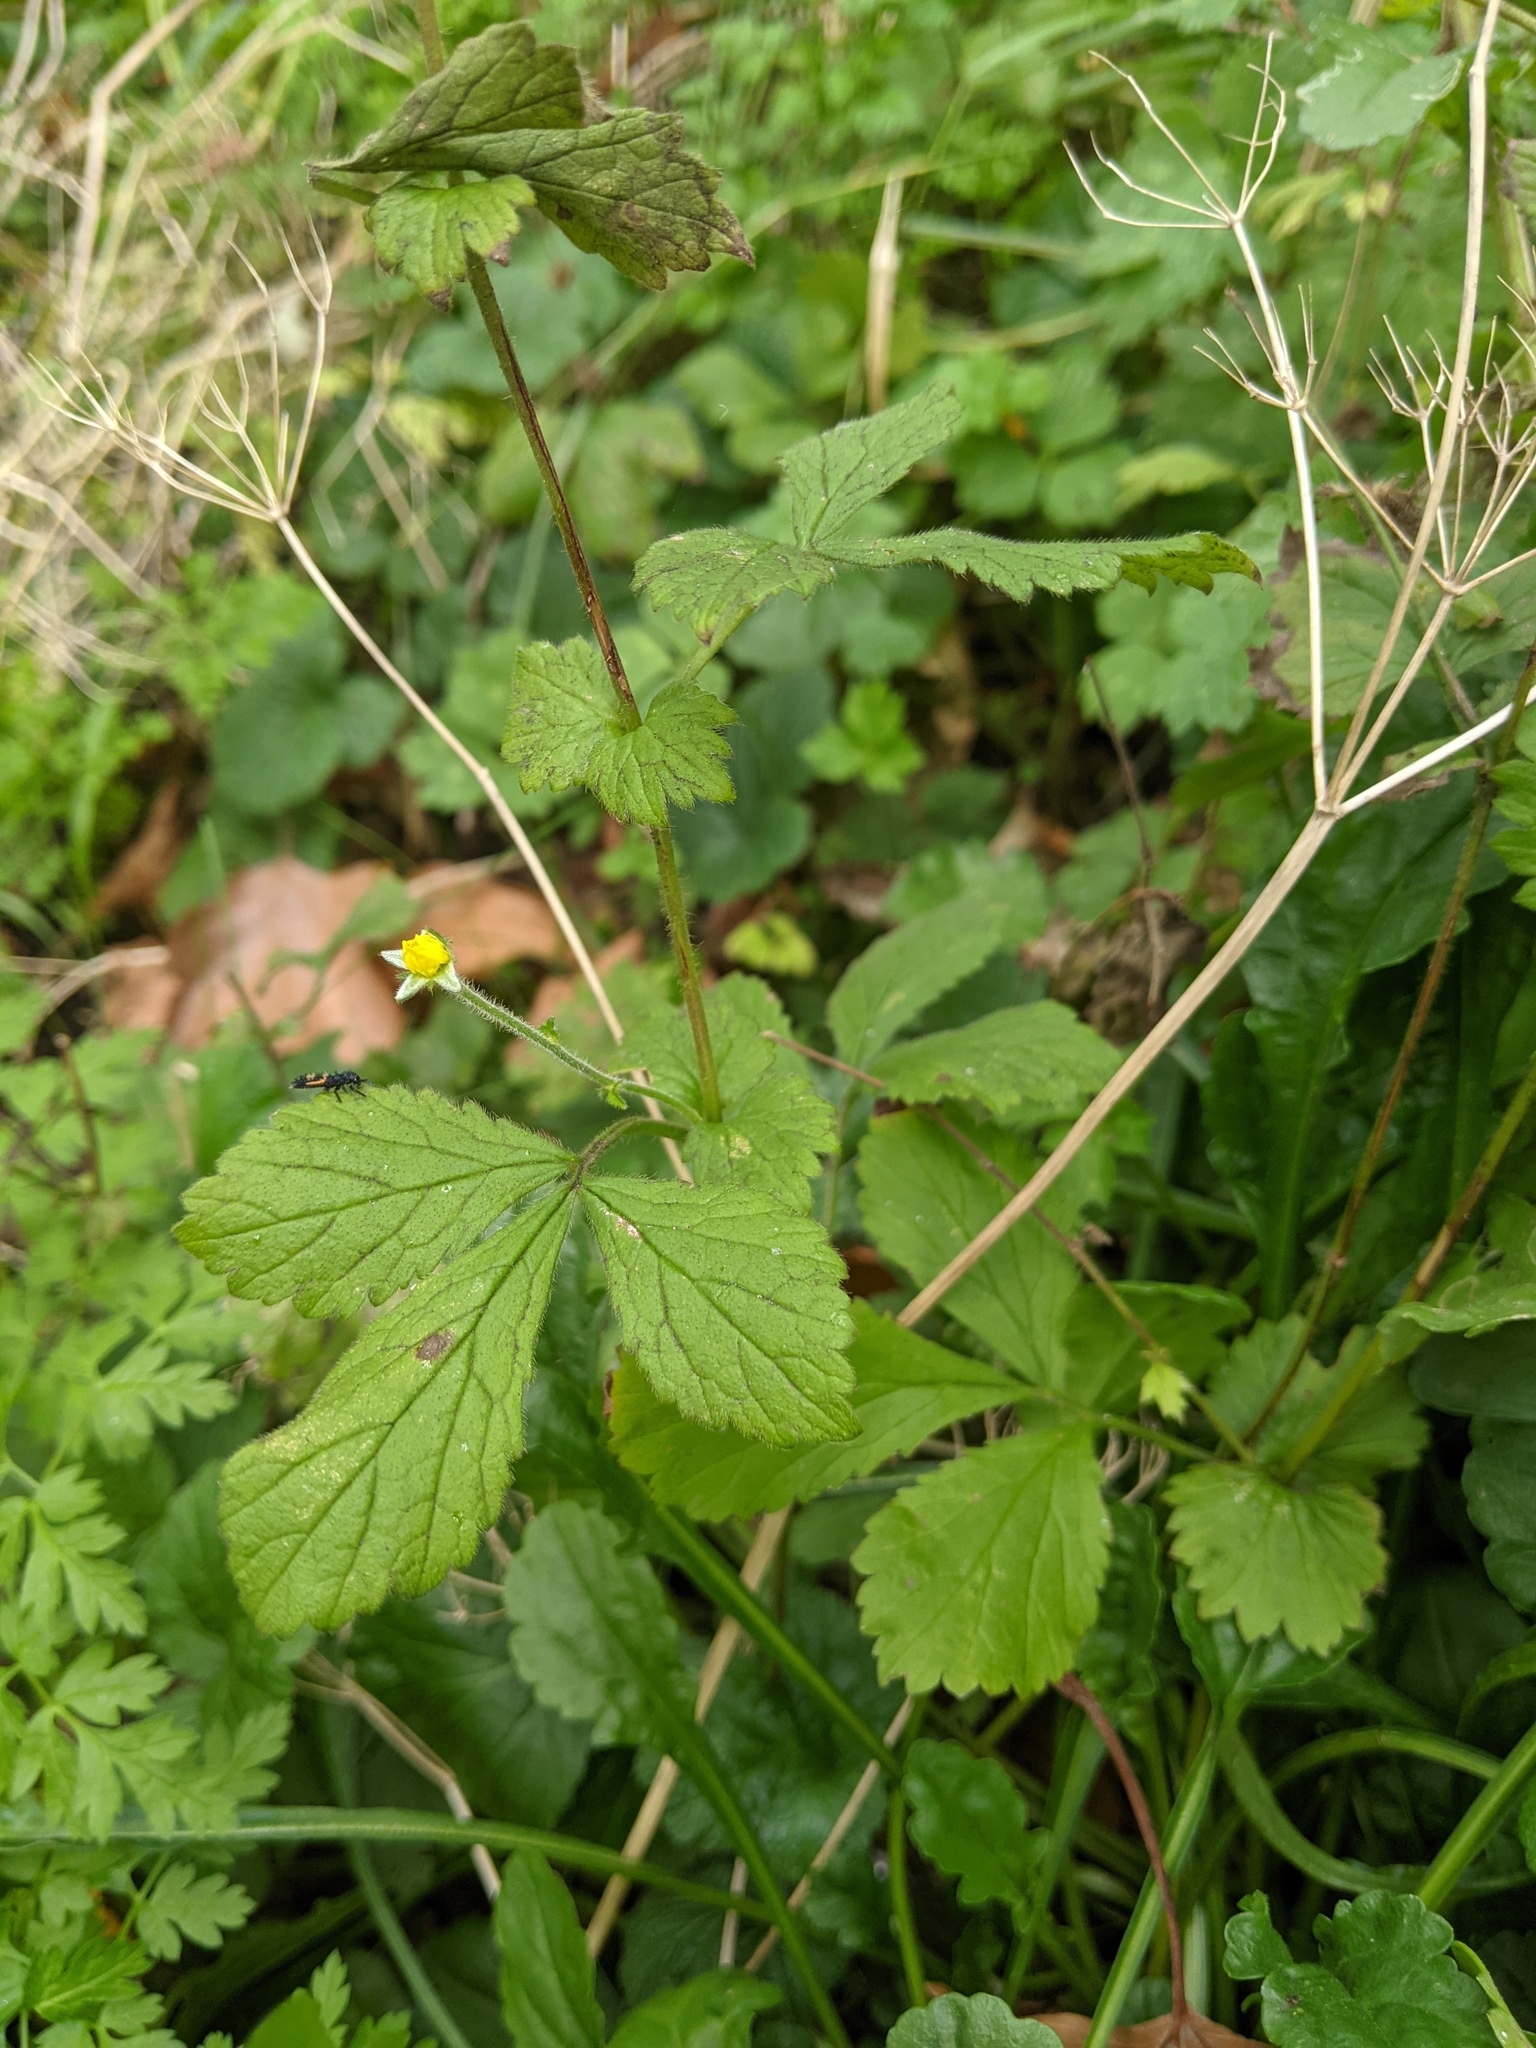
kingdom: Plantae
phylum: Tracheophyta
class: Magnoliopsida
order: Rosales
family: Rosaceae
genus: Geum
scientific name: Geum urbanum
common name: Wood avens
